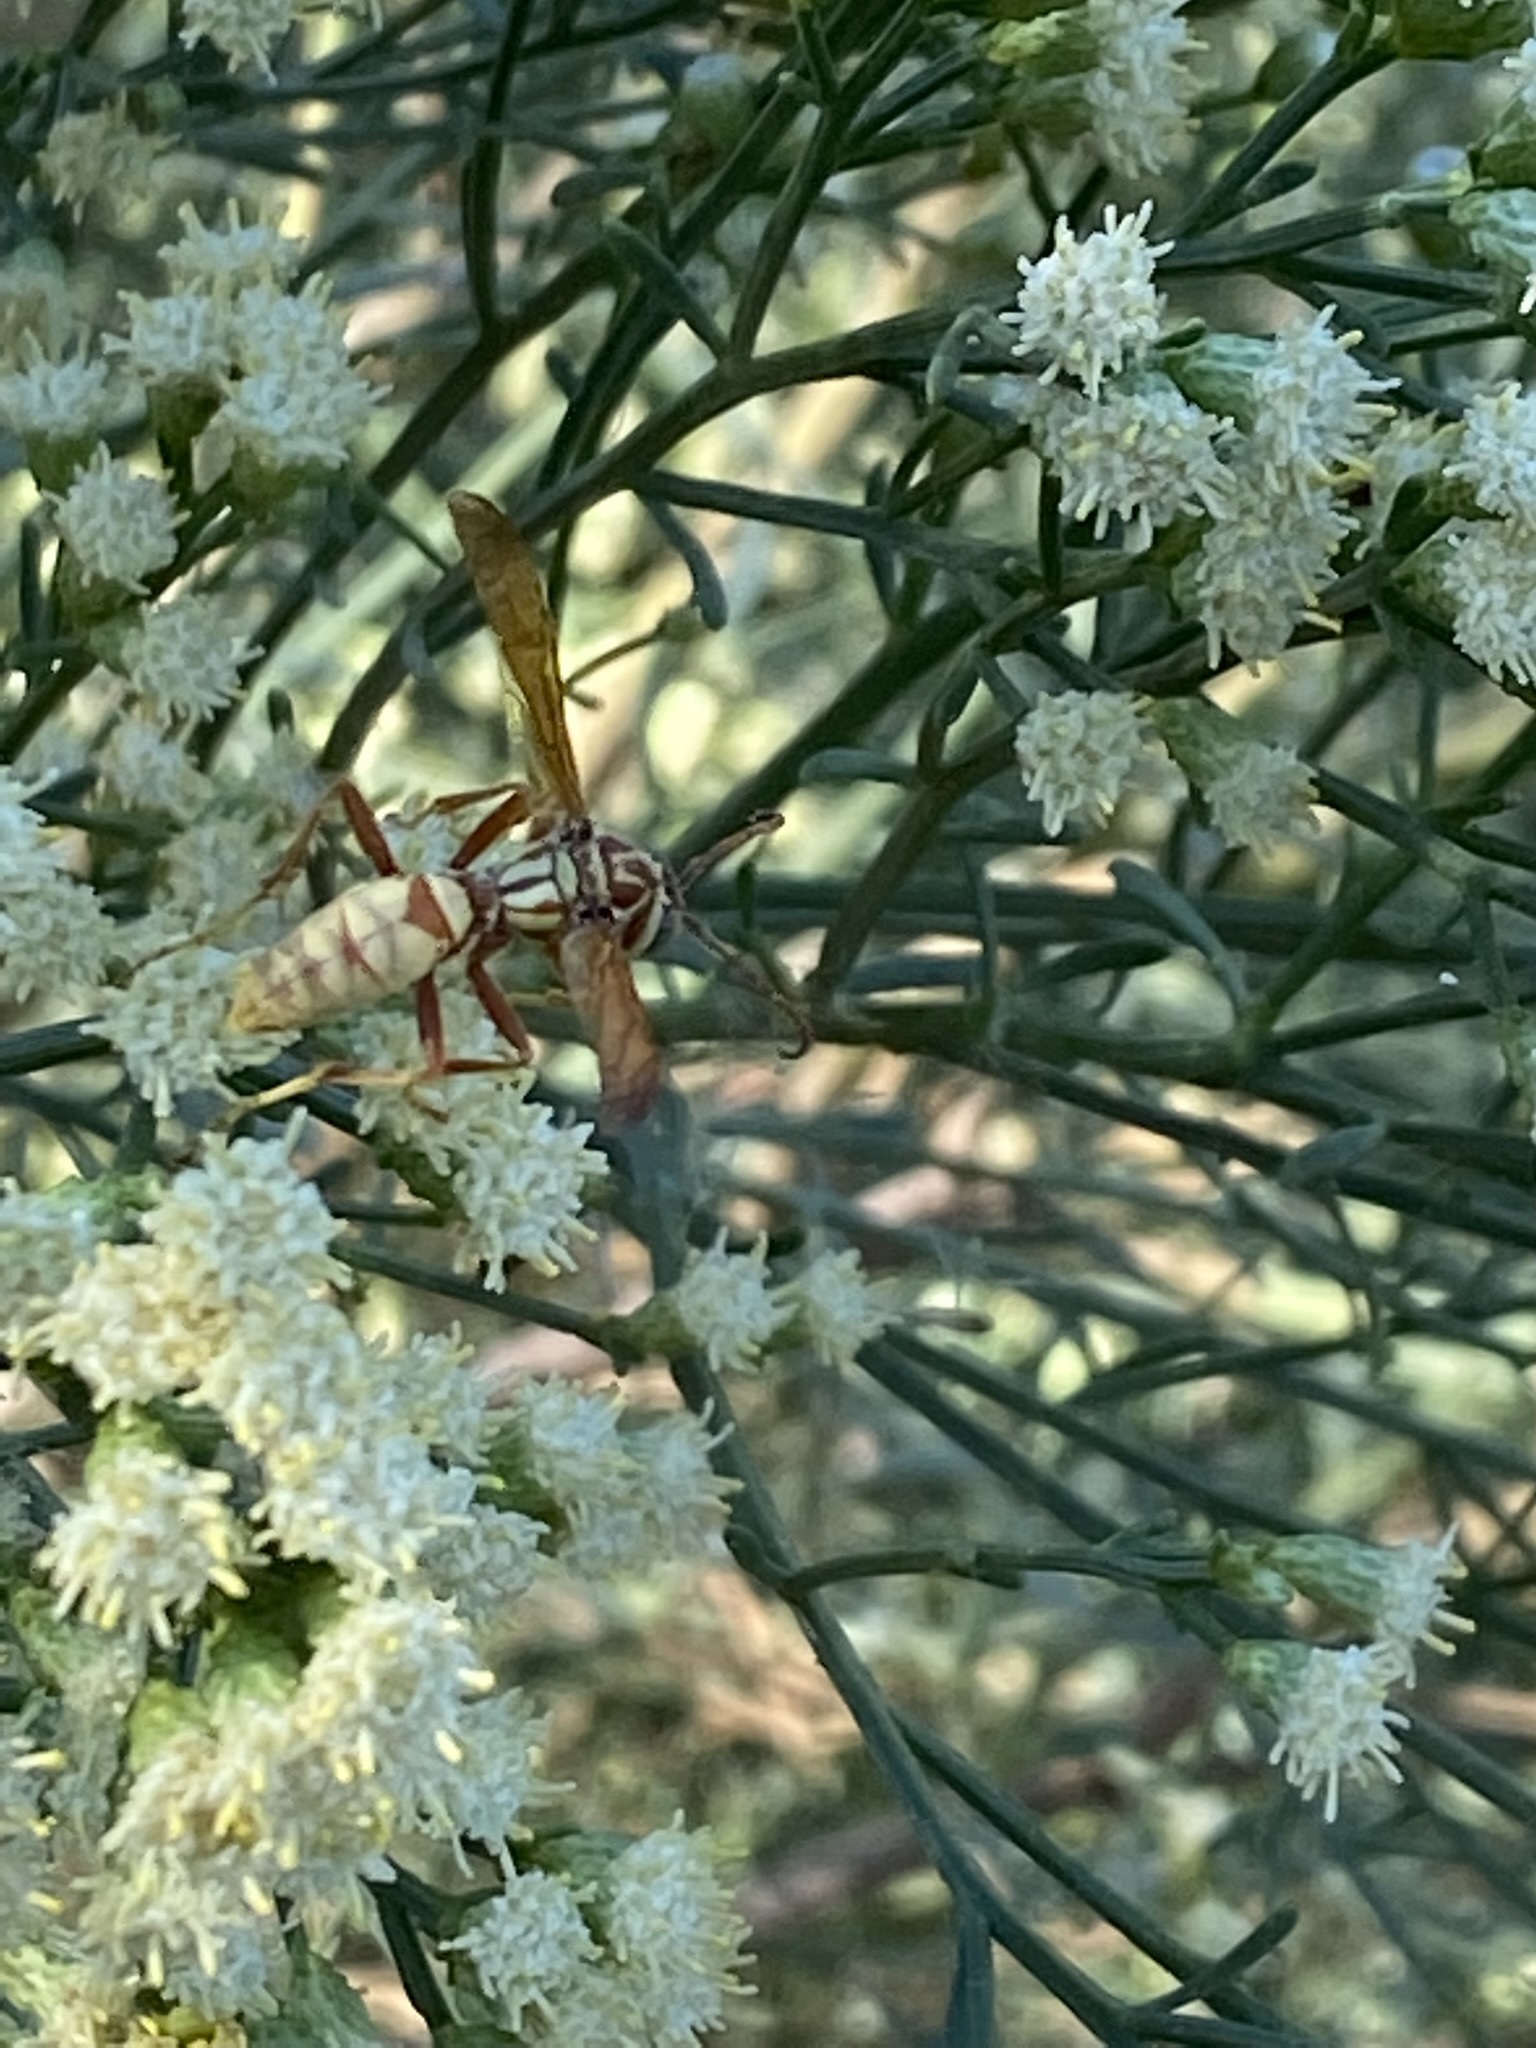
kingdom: Animalia
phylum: Arthropoda
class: Insecta
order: Hymenoptera
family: Eumenidae
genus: Polistes
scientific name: Polistes aurifer
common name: Paper wasp
